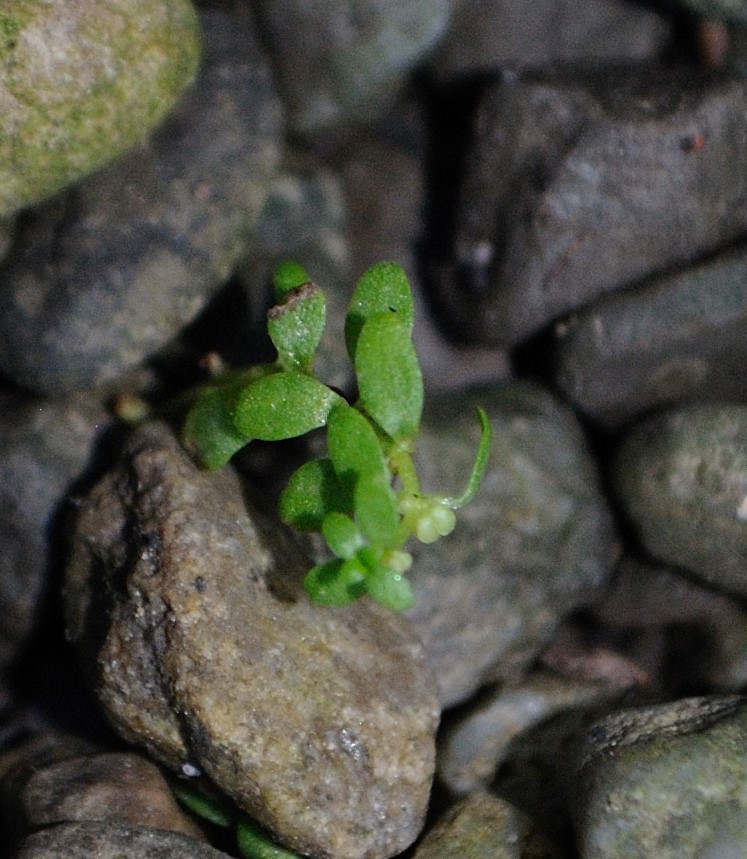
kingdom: Plantae
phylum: Tracheophyta
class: Magnoliopsida
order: Lamiales
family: Plantaginaceae
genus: Callitriche
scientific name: Callitriche terrestris
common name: Terrestrial water-starwort
